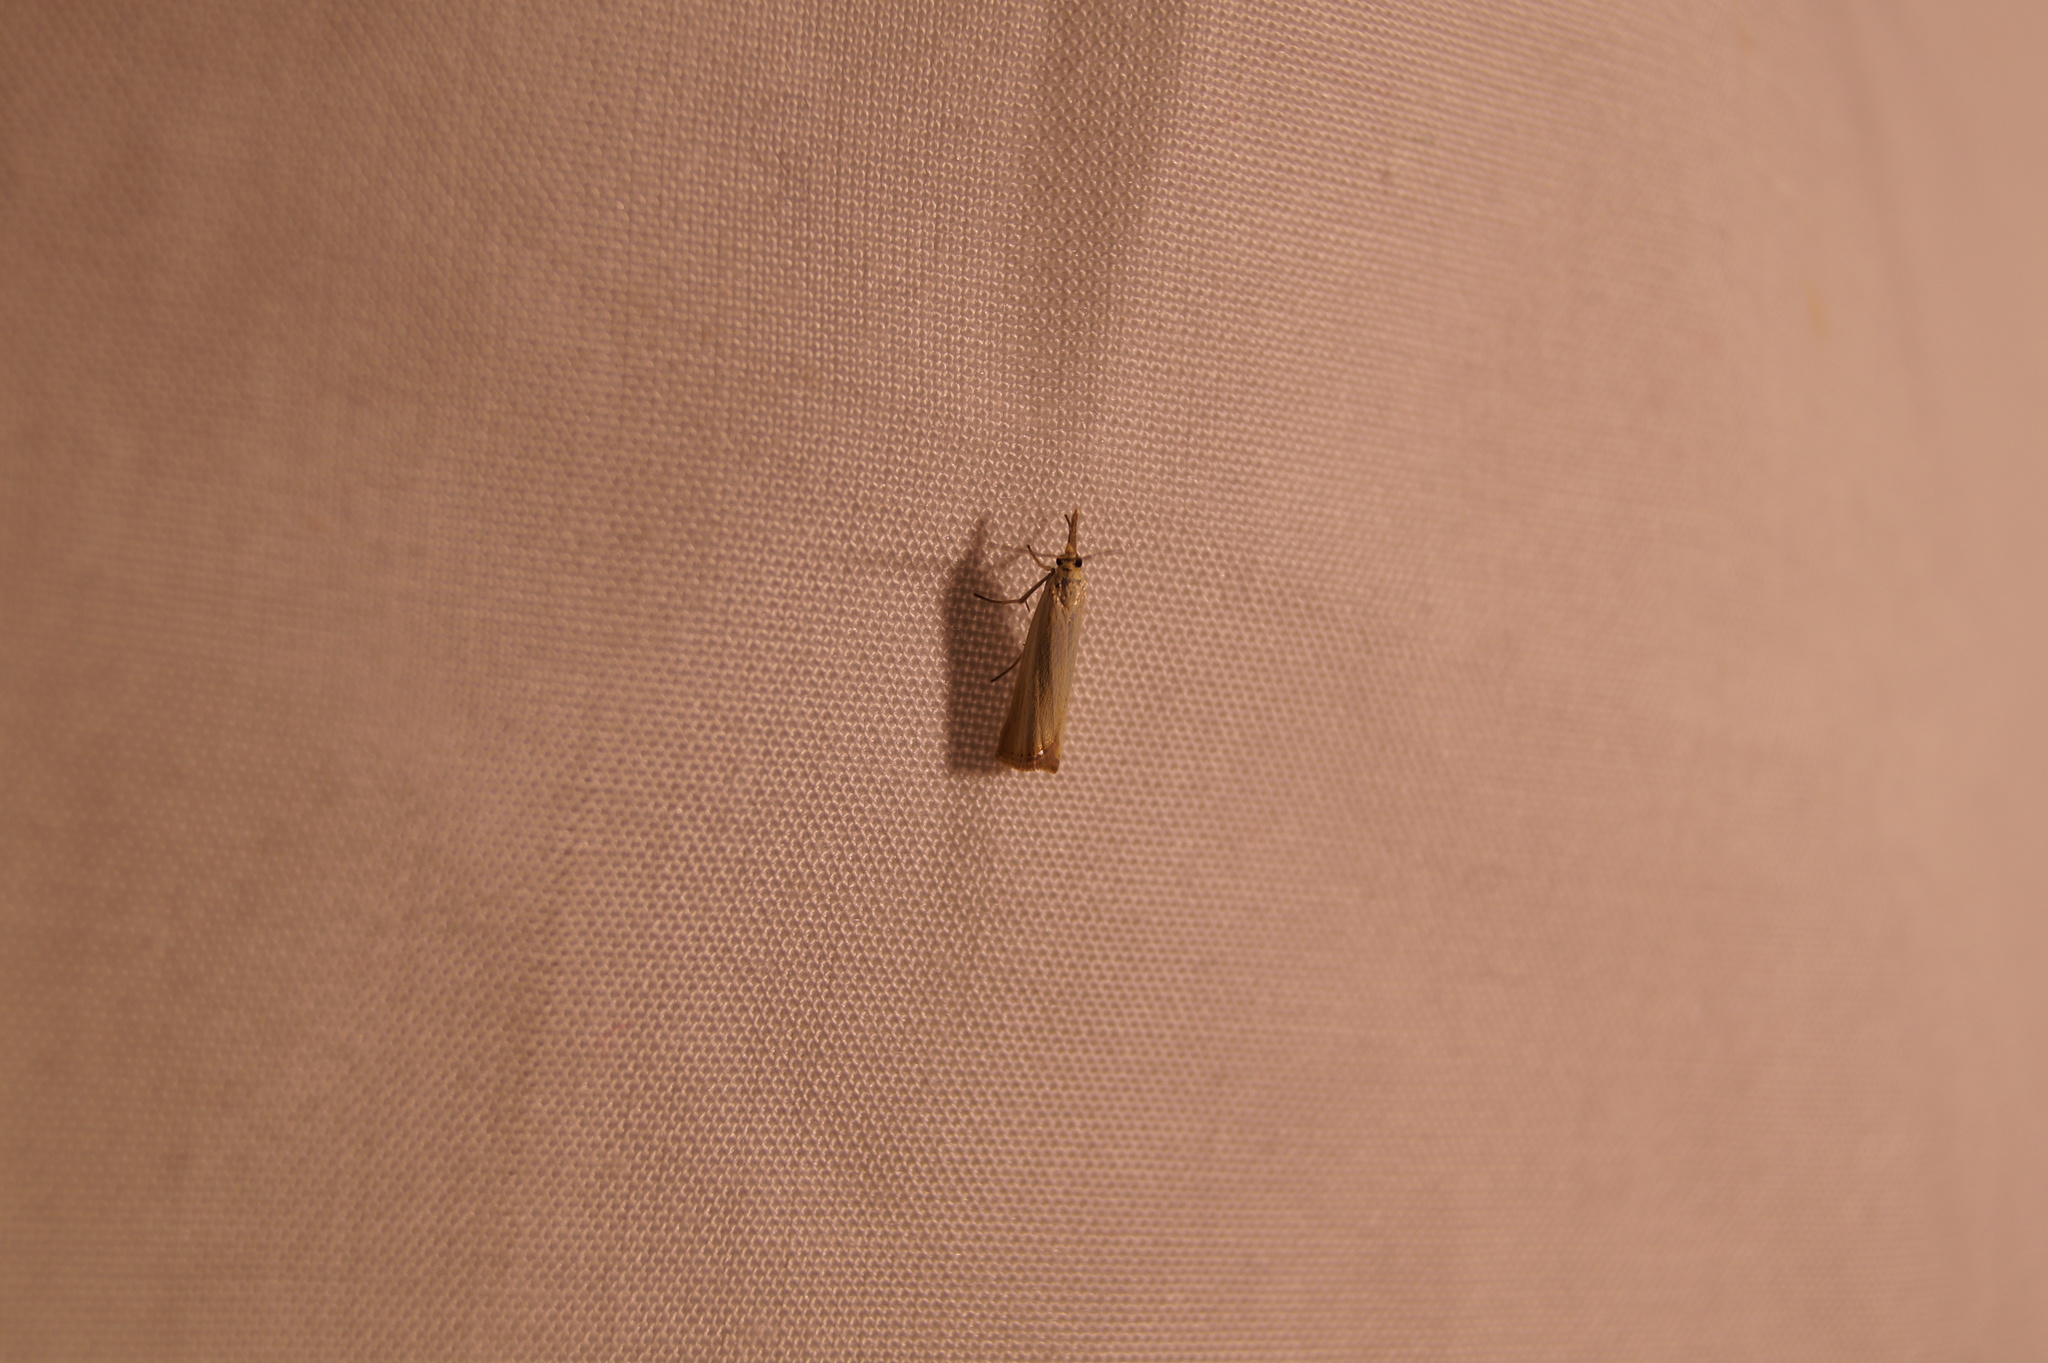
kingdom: Animalia
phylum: Arthropoda
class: Insecta
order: Lepidoptera
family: Crambidae
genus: Agriphila
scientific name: Agriphila straminella
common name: Straw grass-veneer
